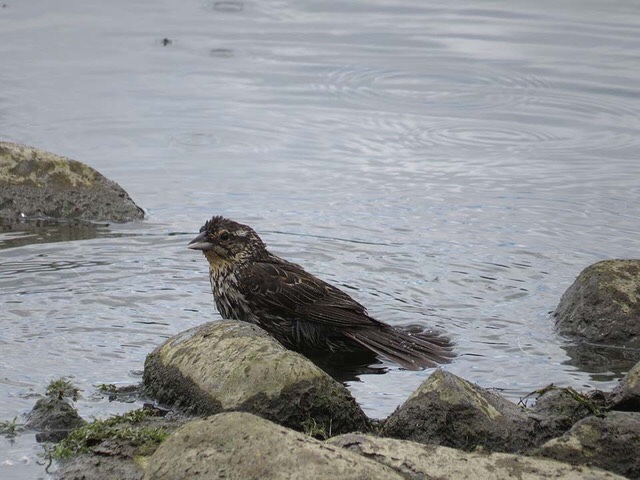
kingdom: Animalia
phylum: Chordata
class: Aves
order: Passeriformes
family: Icteridae
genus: Agelaius
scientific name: Agelaius phoeniceus
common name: Red-winged blackbird
